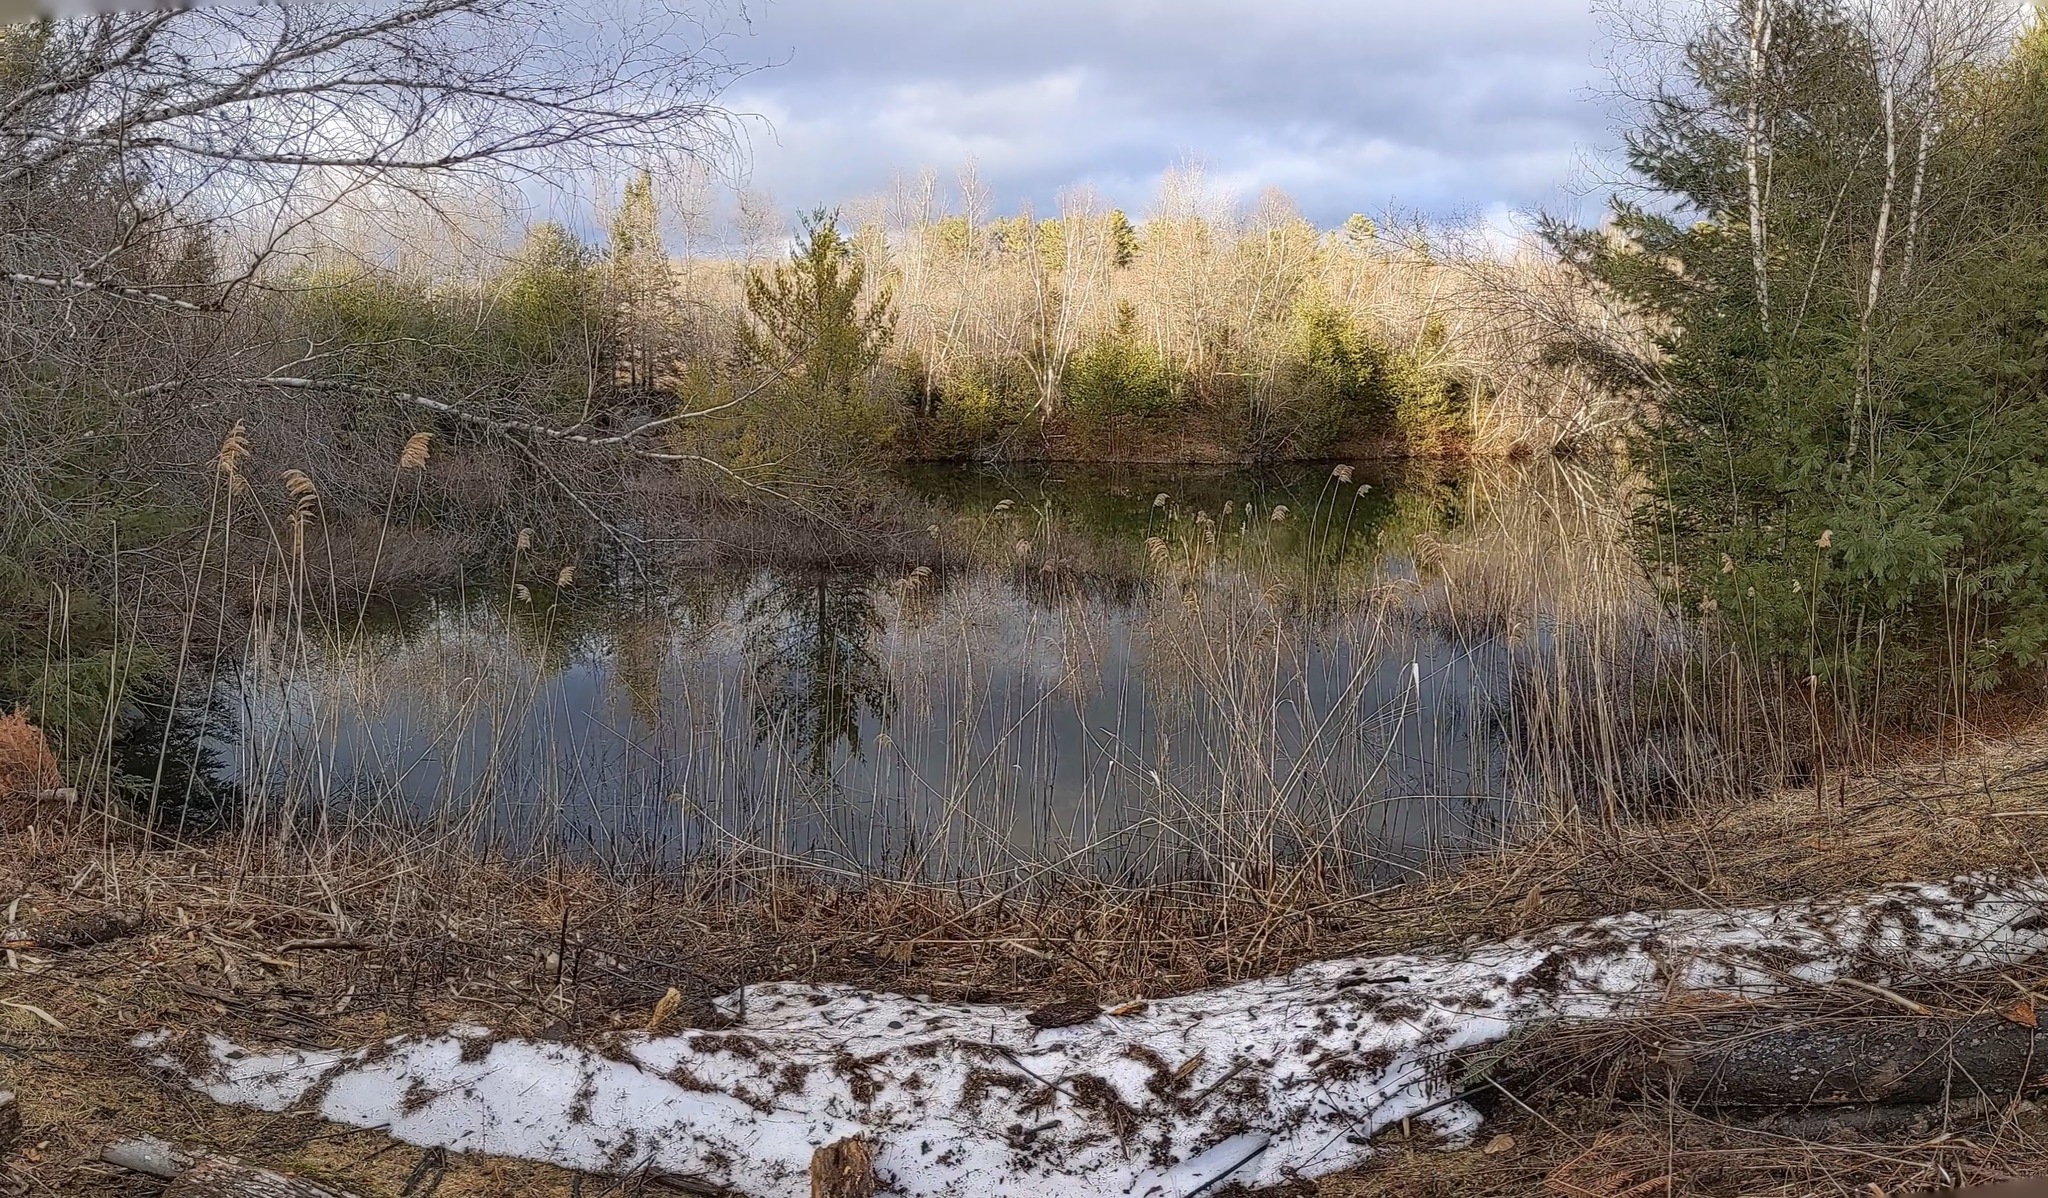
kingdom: Plantae
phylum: Tracheophyta
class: Pinopsida
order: Pinales
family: Pinaceae
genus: Pinus
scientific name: Pinus strobus
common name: Weymouth pine
